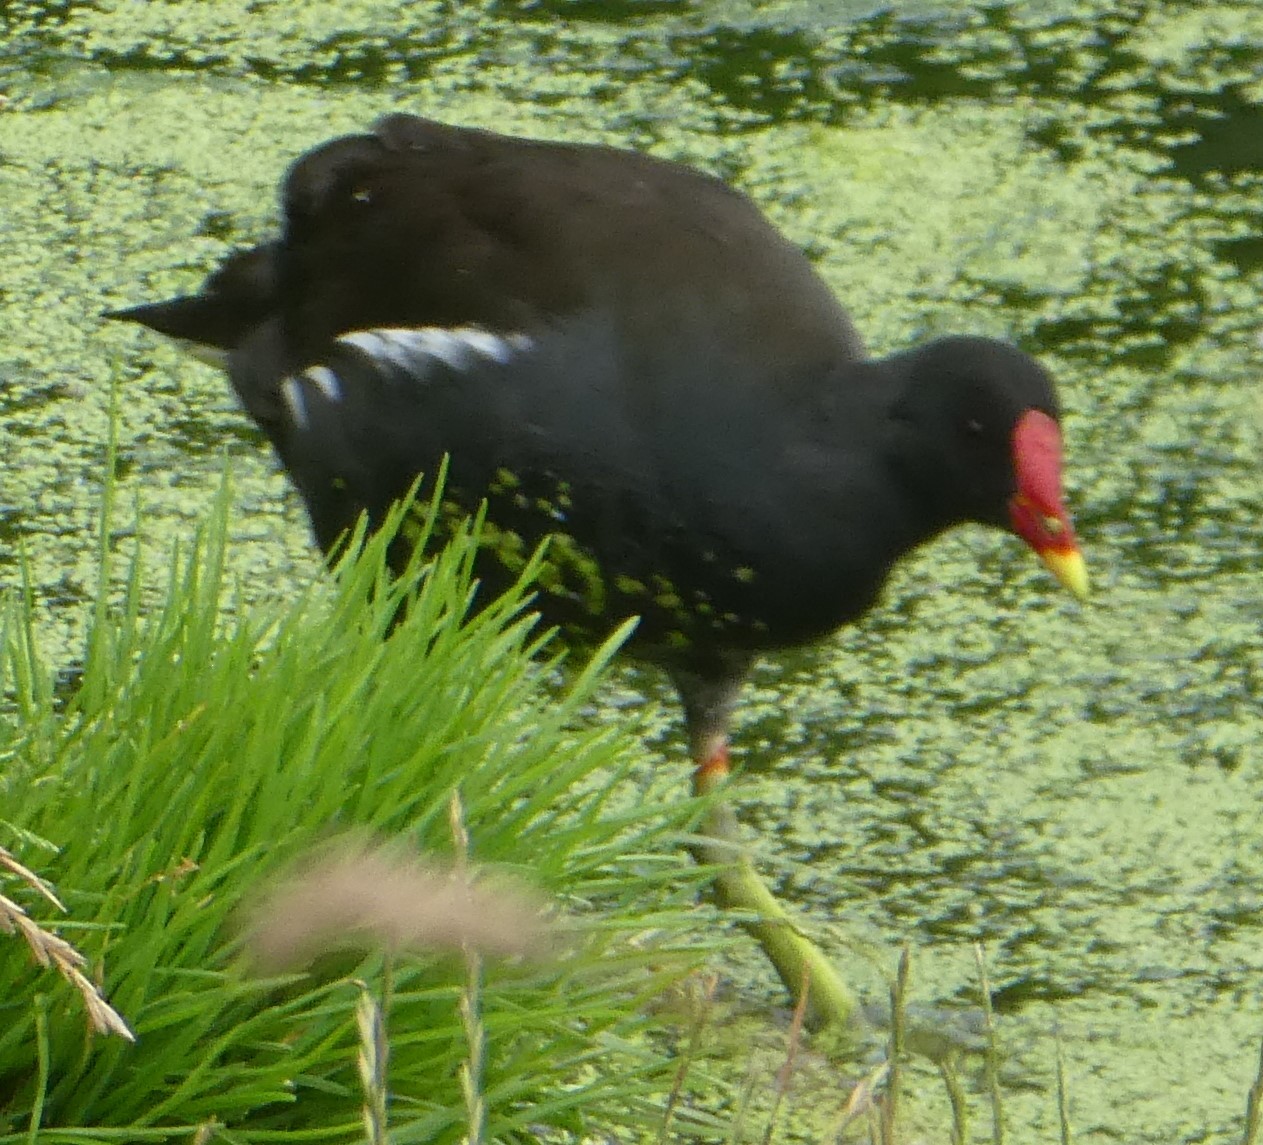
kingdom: Animalia
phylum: Chordata
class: Aves
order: Gruiformes
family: Rallidae
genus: Gallinula
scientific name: Gallinula chloropus
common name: Common moorhen
